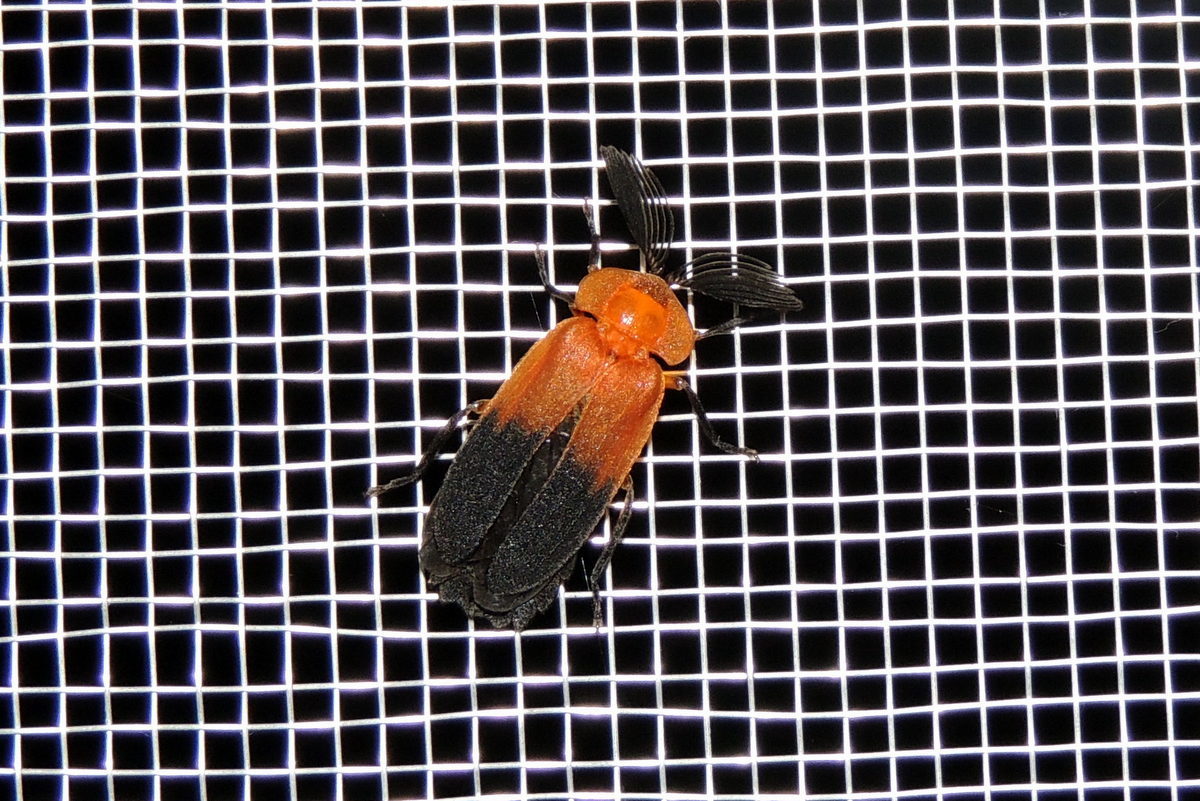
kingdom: Animalia
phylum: Arthropoda
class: Insecta
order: Coleoptera
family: Lampyridae
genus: Cladodes
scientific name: Cladodes
